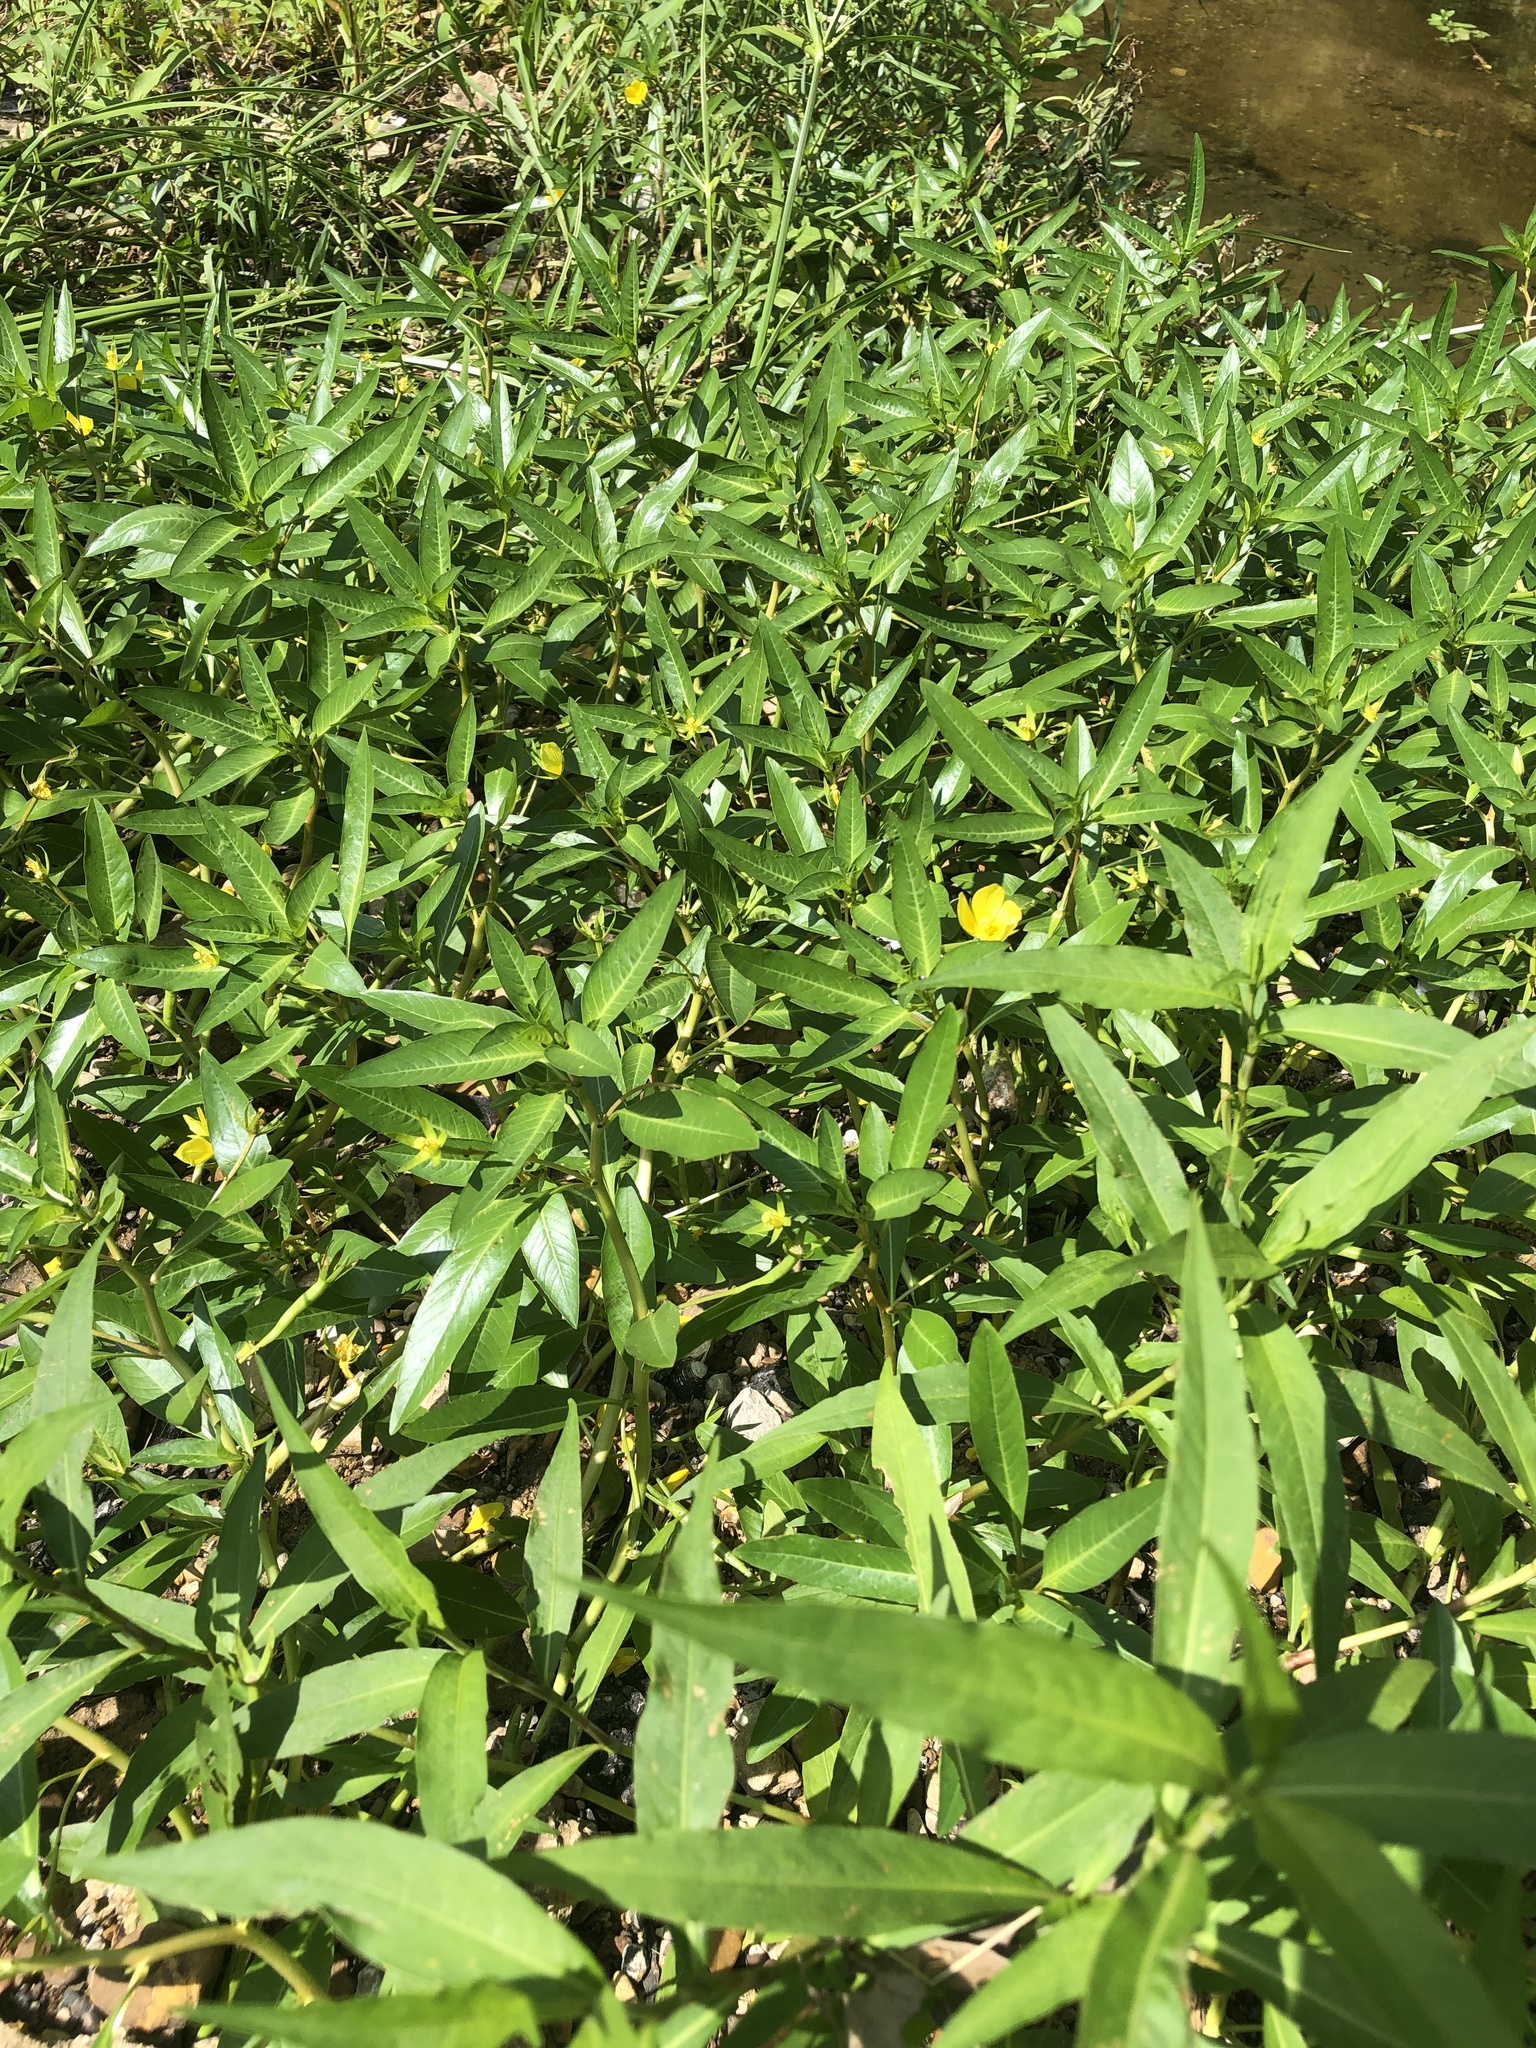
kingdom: Plantae
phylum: Tracheophyta
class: Magnoliopsida
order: Myrtales
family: Onagraceae
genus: Ludwigia
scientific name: Ludwigia peploides
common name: Floating primrose-willow
